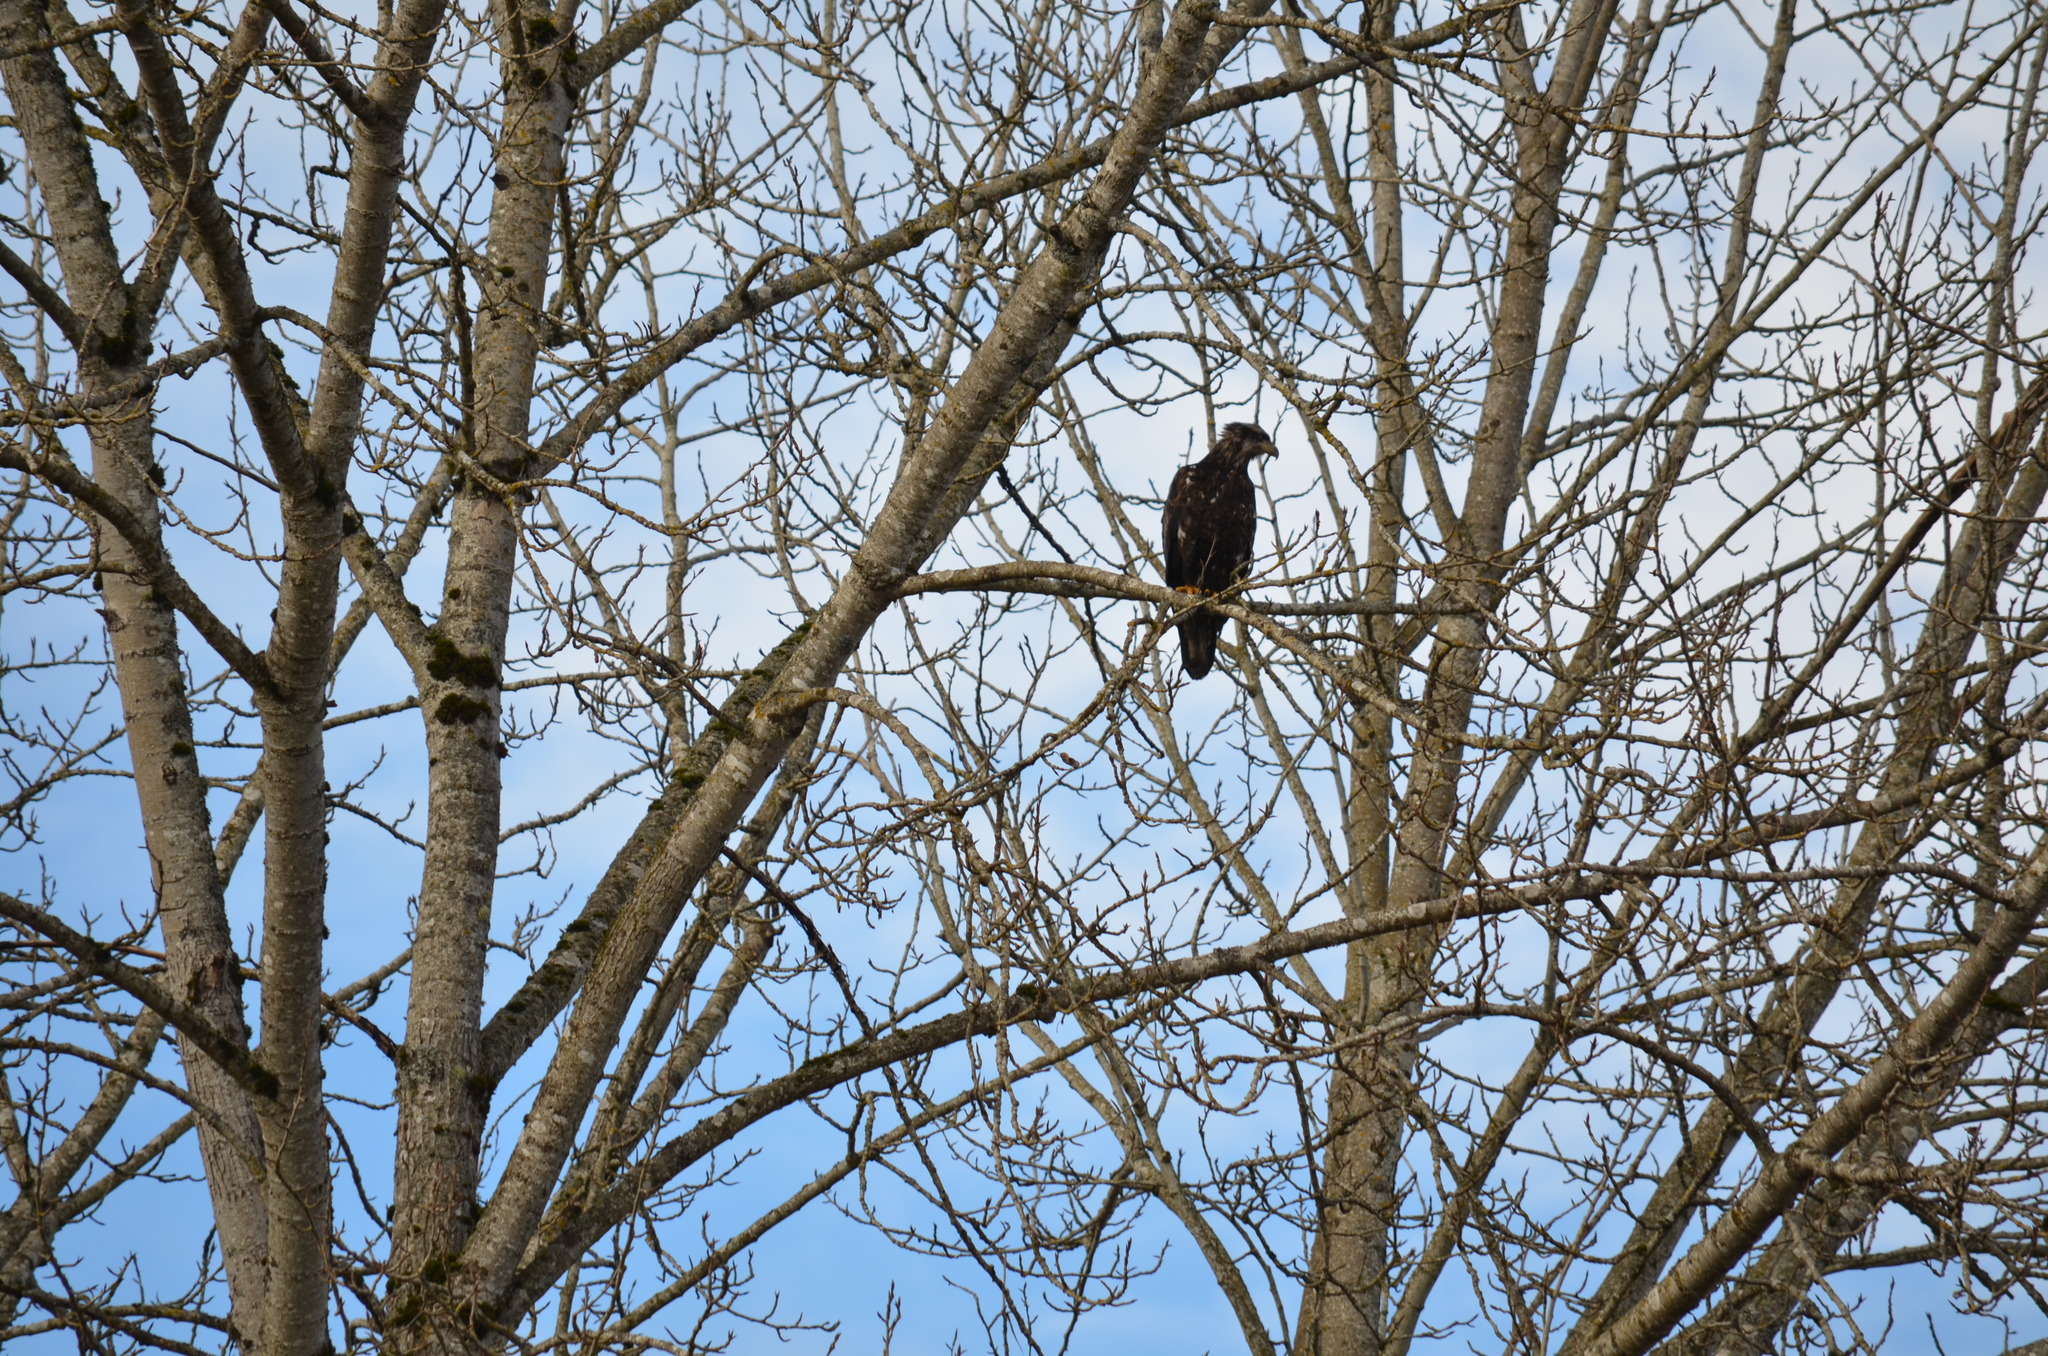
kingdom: Animalia
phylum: Chordata
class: Aves
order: Accipitriformes
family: Accipitridae
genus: Haliaeetus
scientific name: Haliaeetus leucocephalus
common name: Bald eagle
